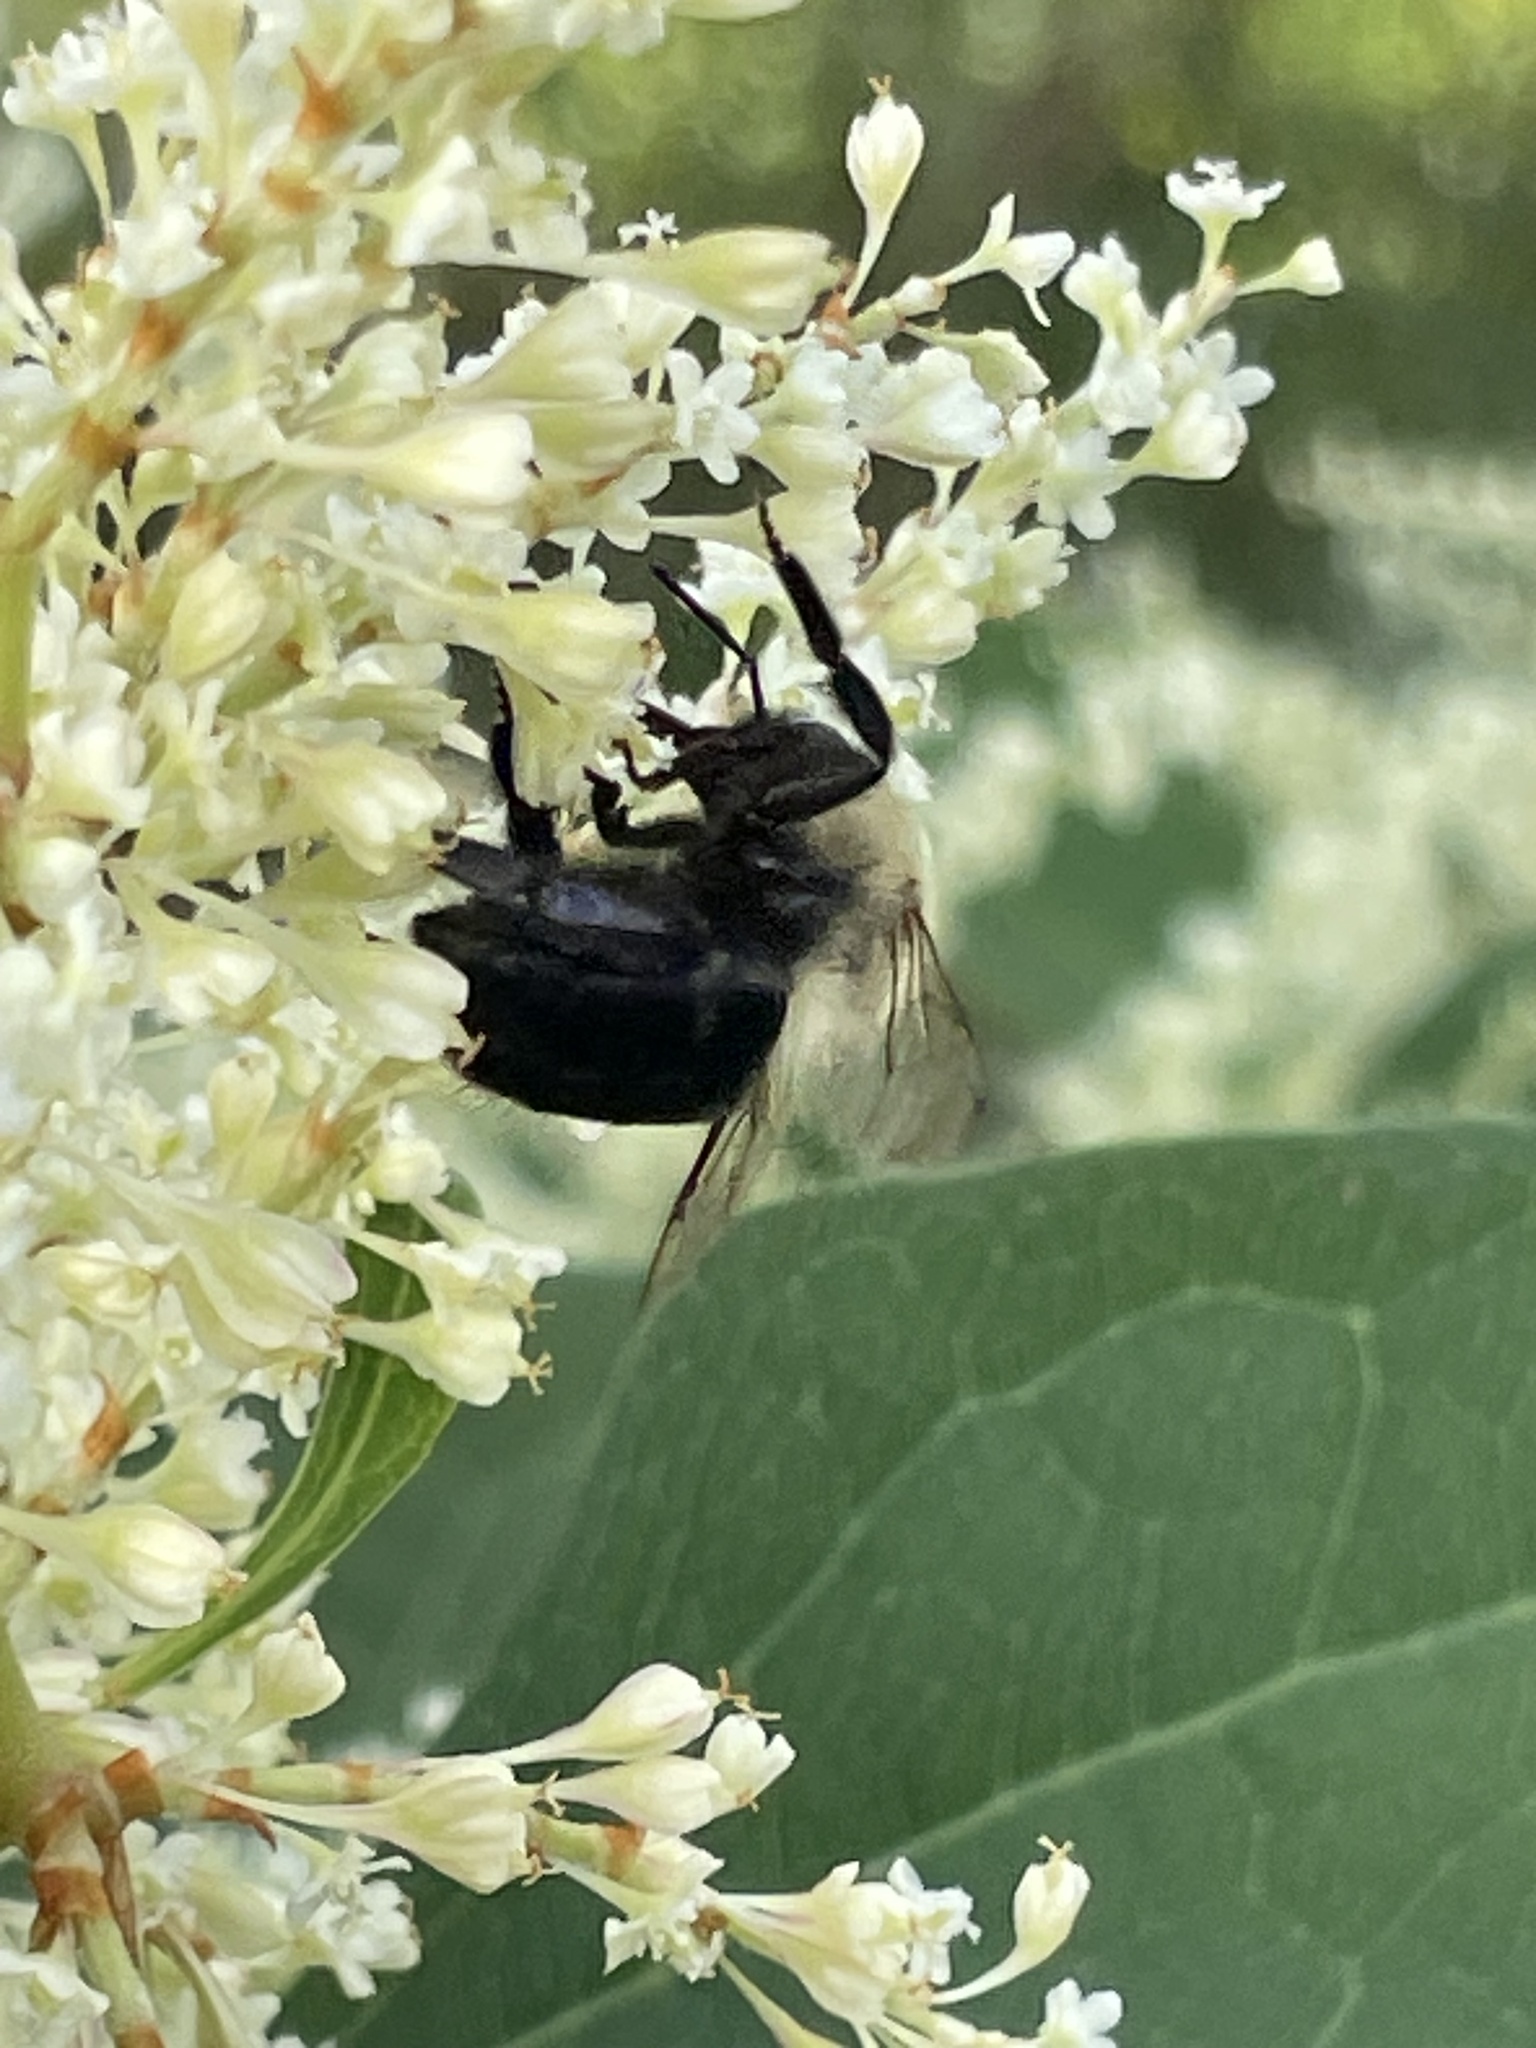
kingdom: Animalia
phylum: Arthropoda
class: Insecta
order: Hymenoptera
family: Apidae
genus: Bombus
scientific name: Bombus impatiens
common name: Common eastern bumble bee
